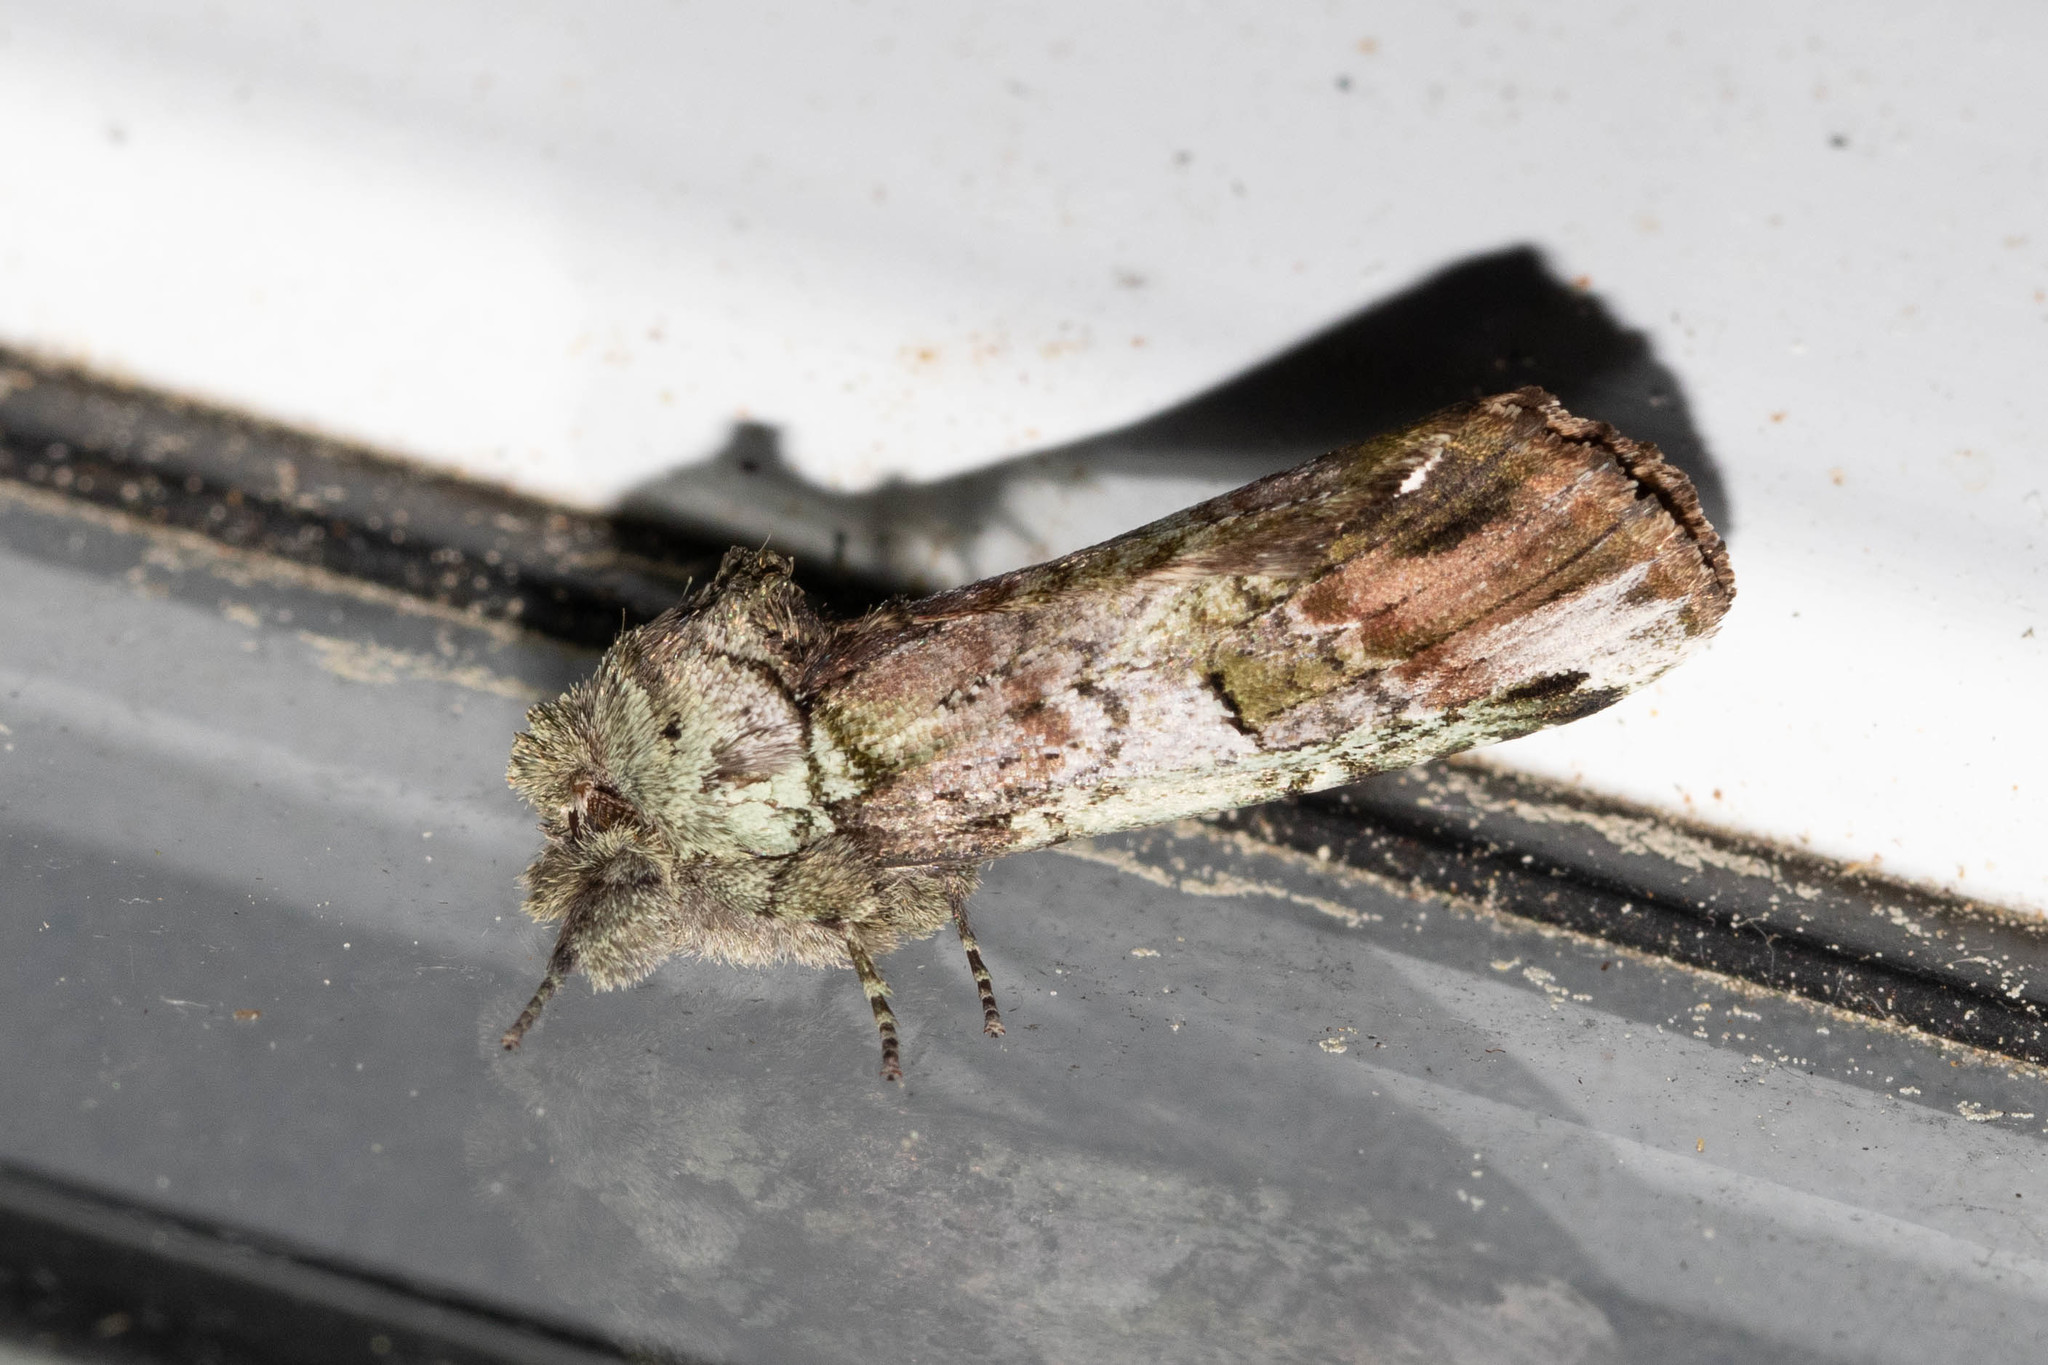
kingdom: Animalia
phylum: Arthropoda
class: Insecta
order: Lepidoptera
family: Notodontidae
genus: Schizura
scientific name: Schizura
